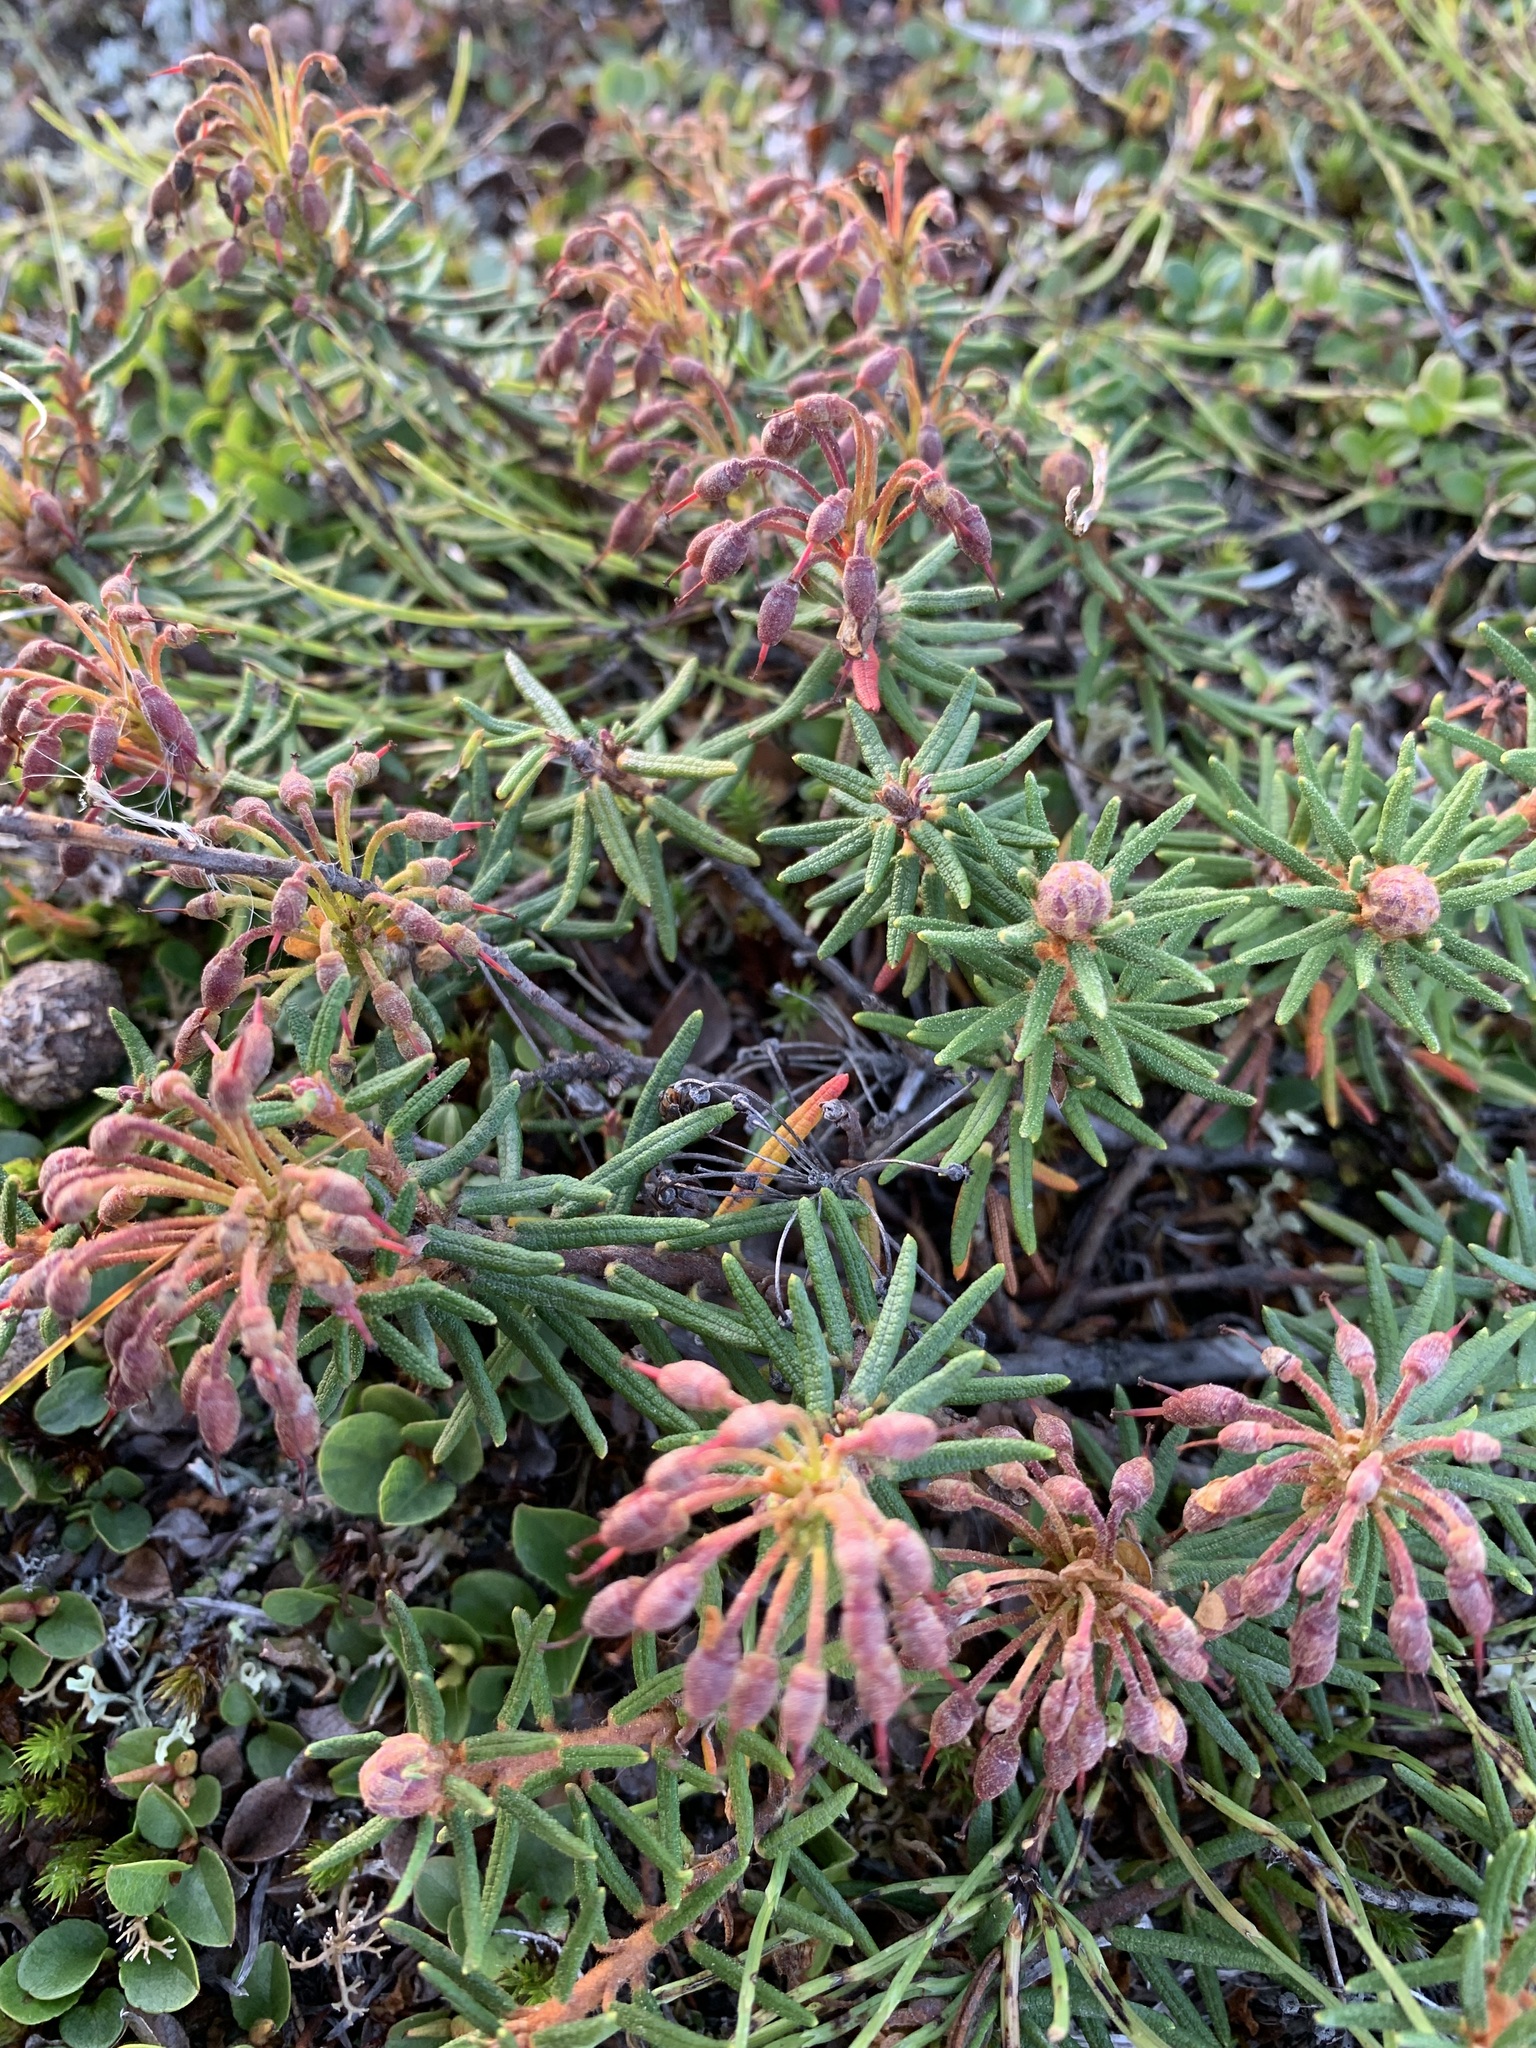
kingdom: Plantae
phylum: Tracheophyta
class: Magnoliopsida
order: Ericales
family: Ericaceae
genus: Rhododendron
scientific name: Rhododendron tomentosum
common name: Marsh labrador tea
